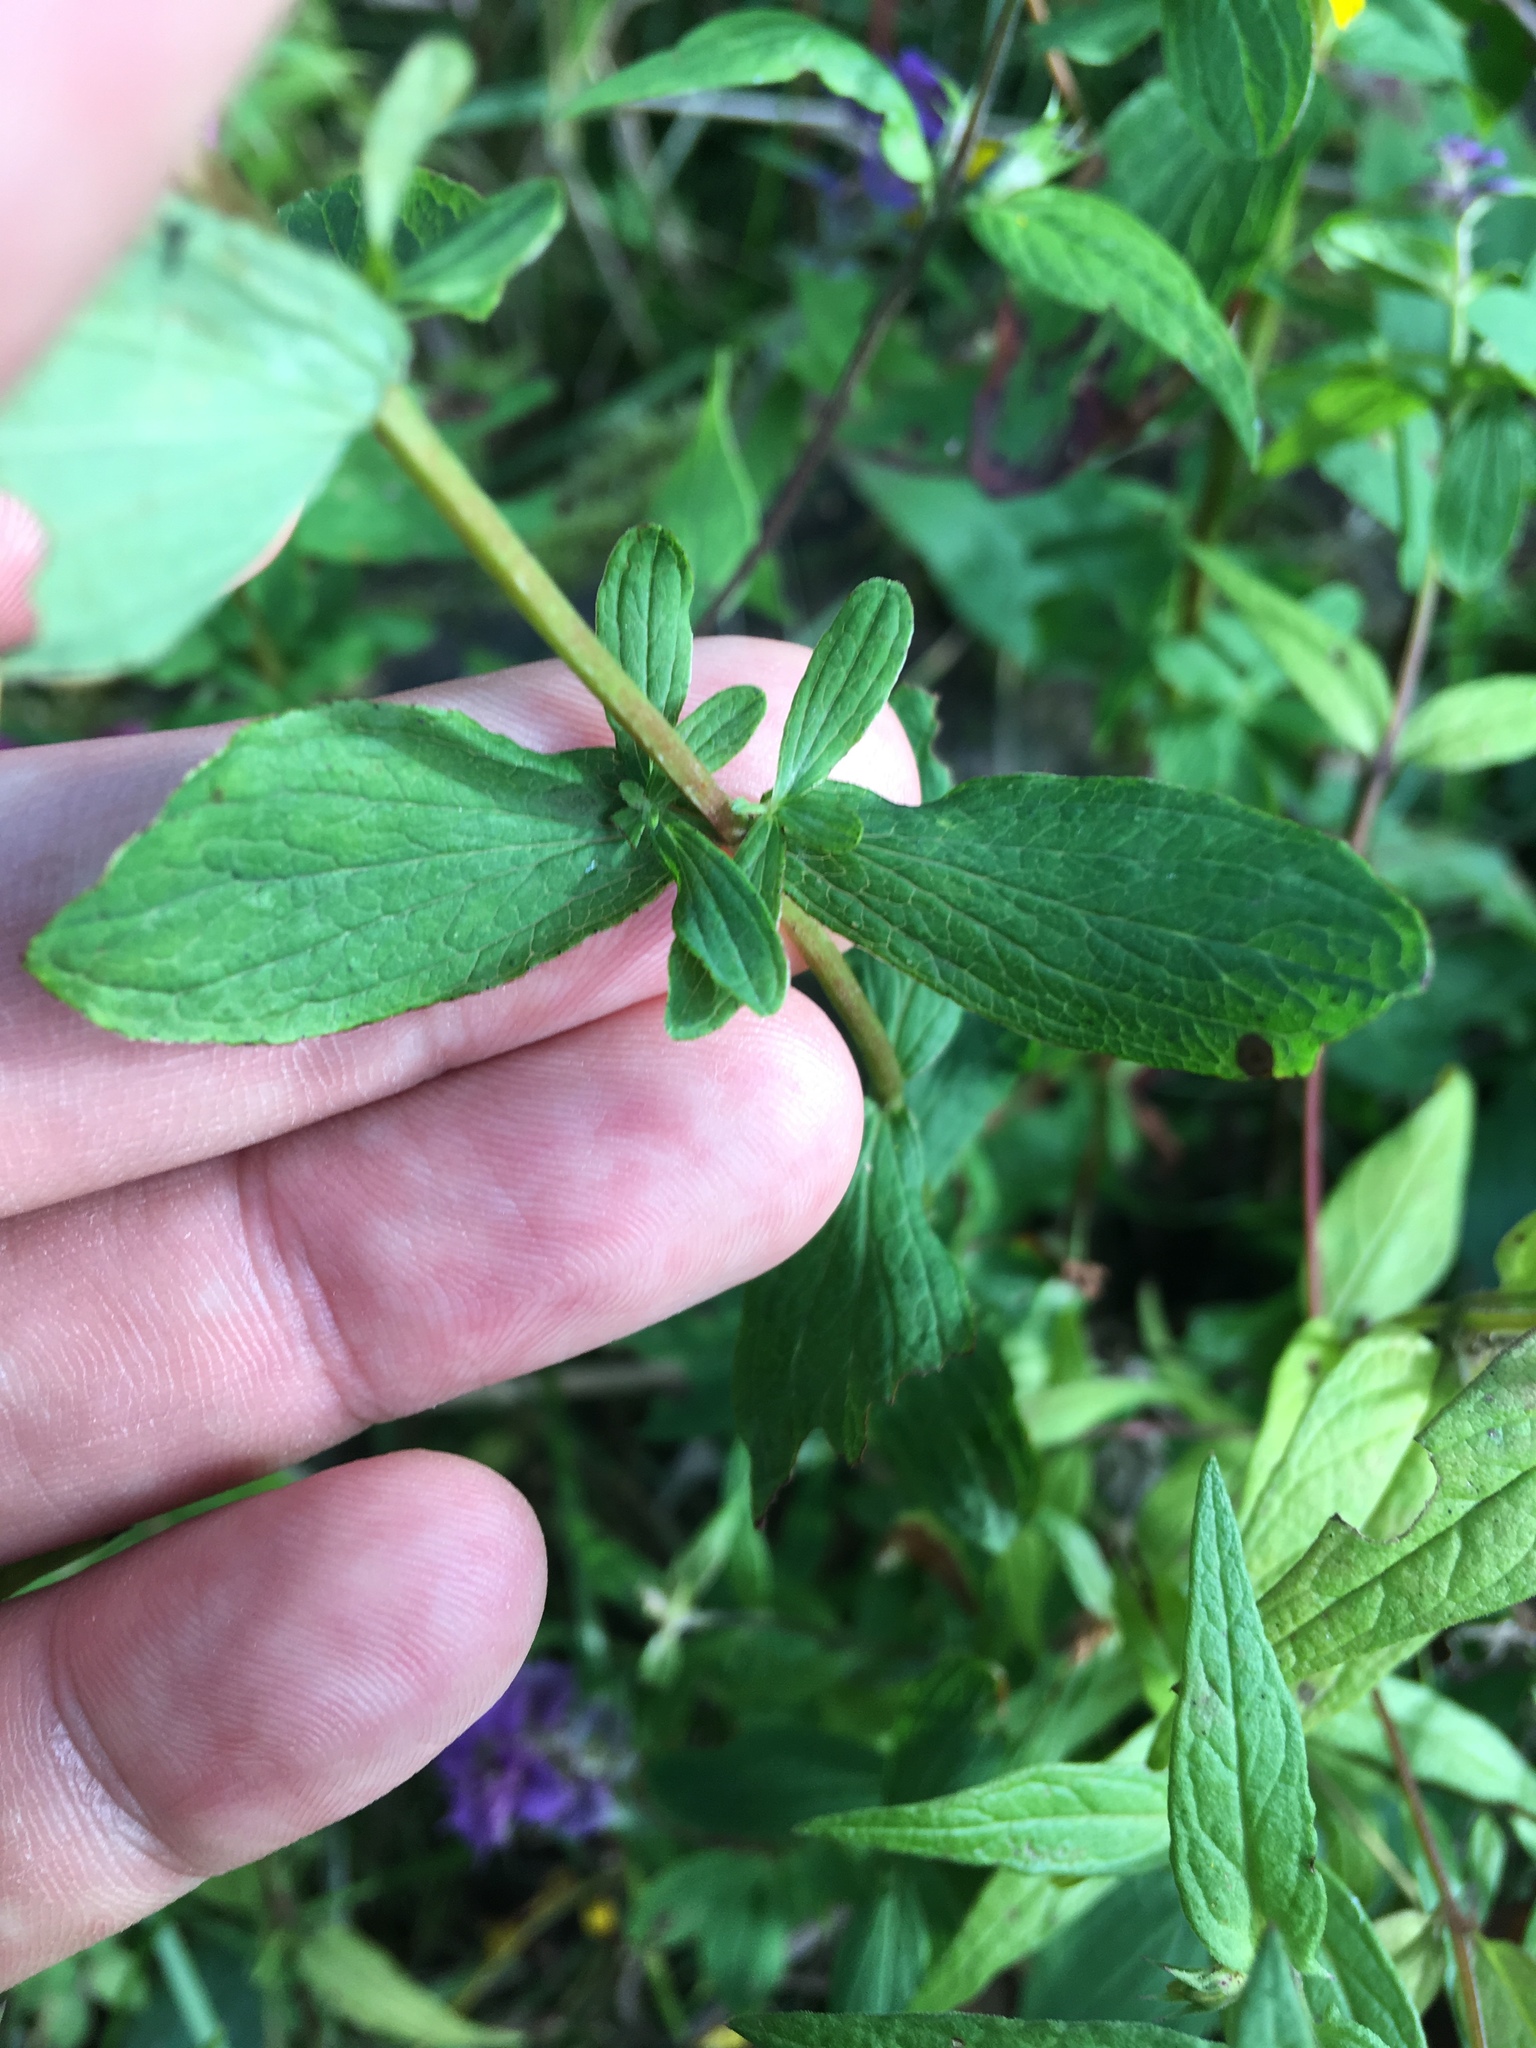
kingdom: Plantae
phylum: Tracheophyta
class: Magnoliopsida
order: Malpighiales
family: Hypericaceae
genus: Hypericum
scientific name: Hypericum maculatum
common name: Imperforate st. john's-wort
